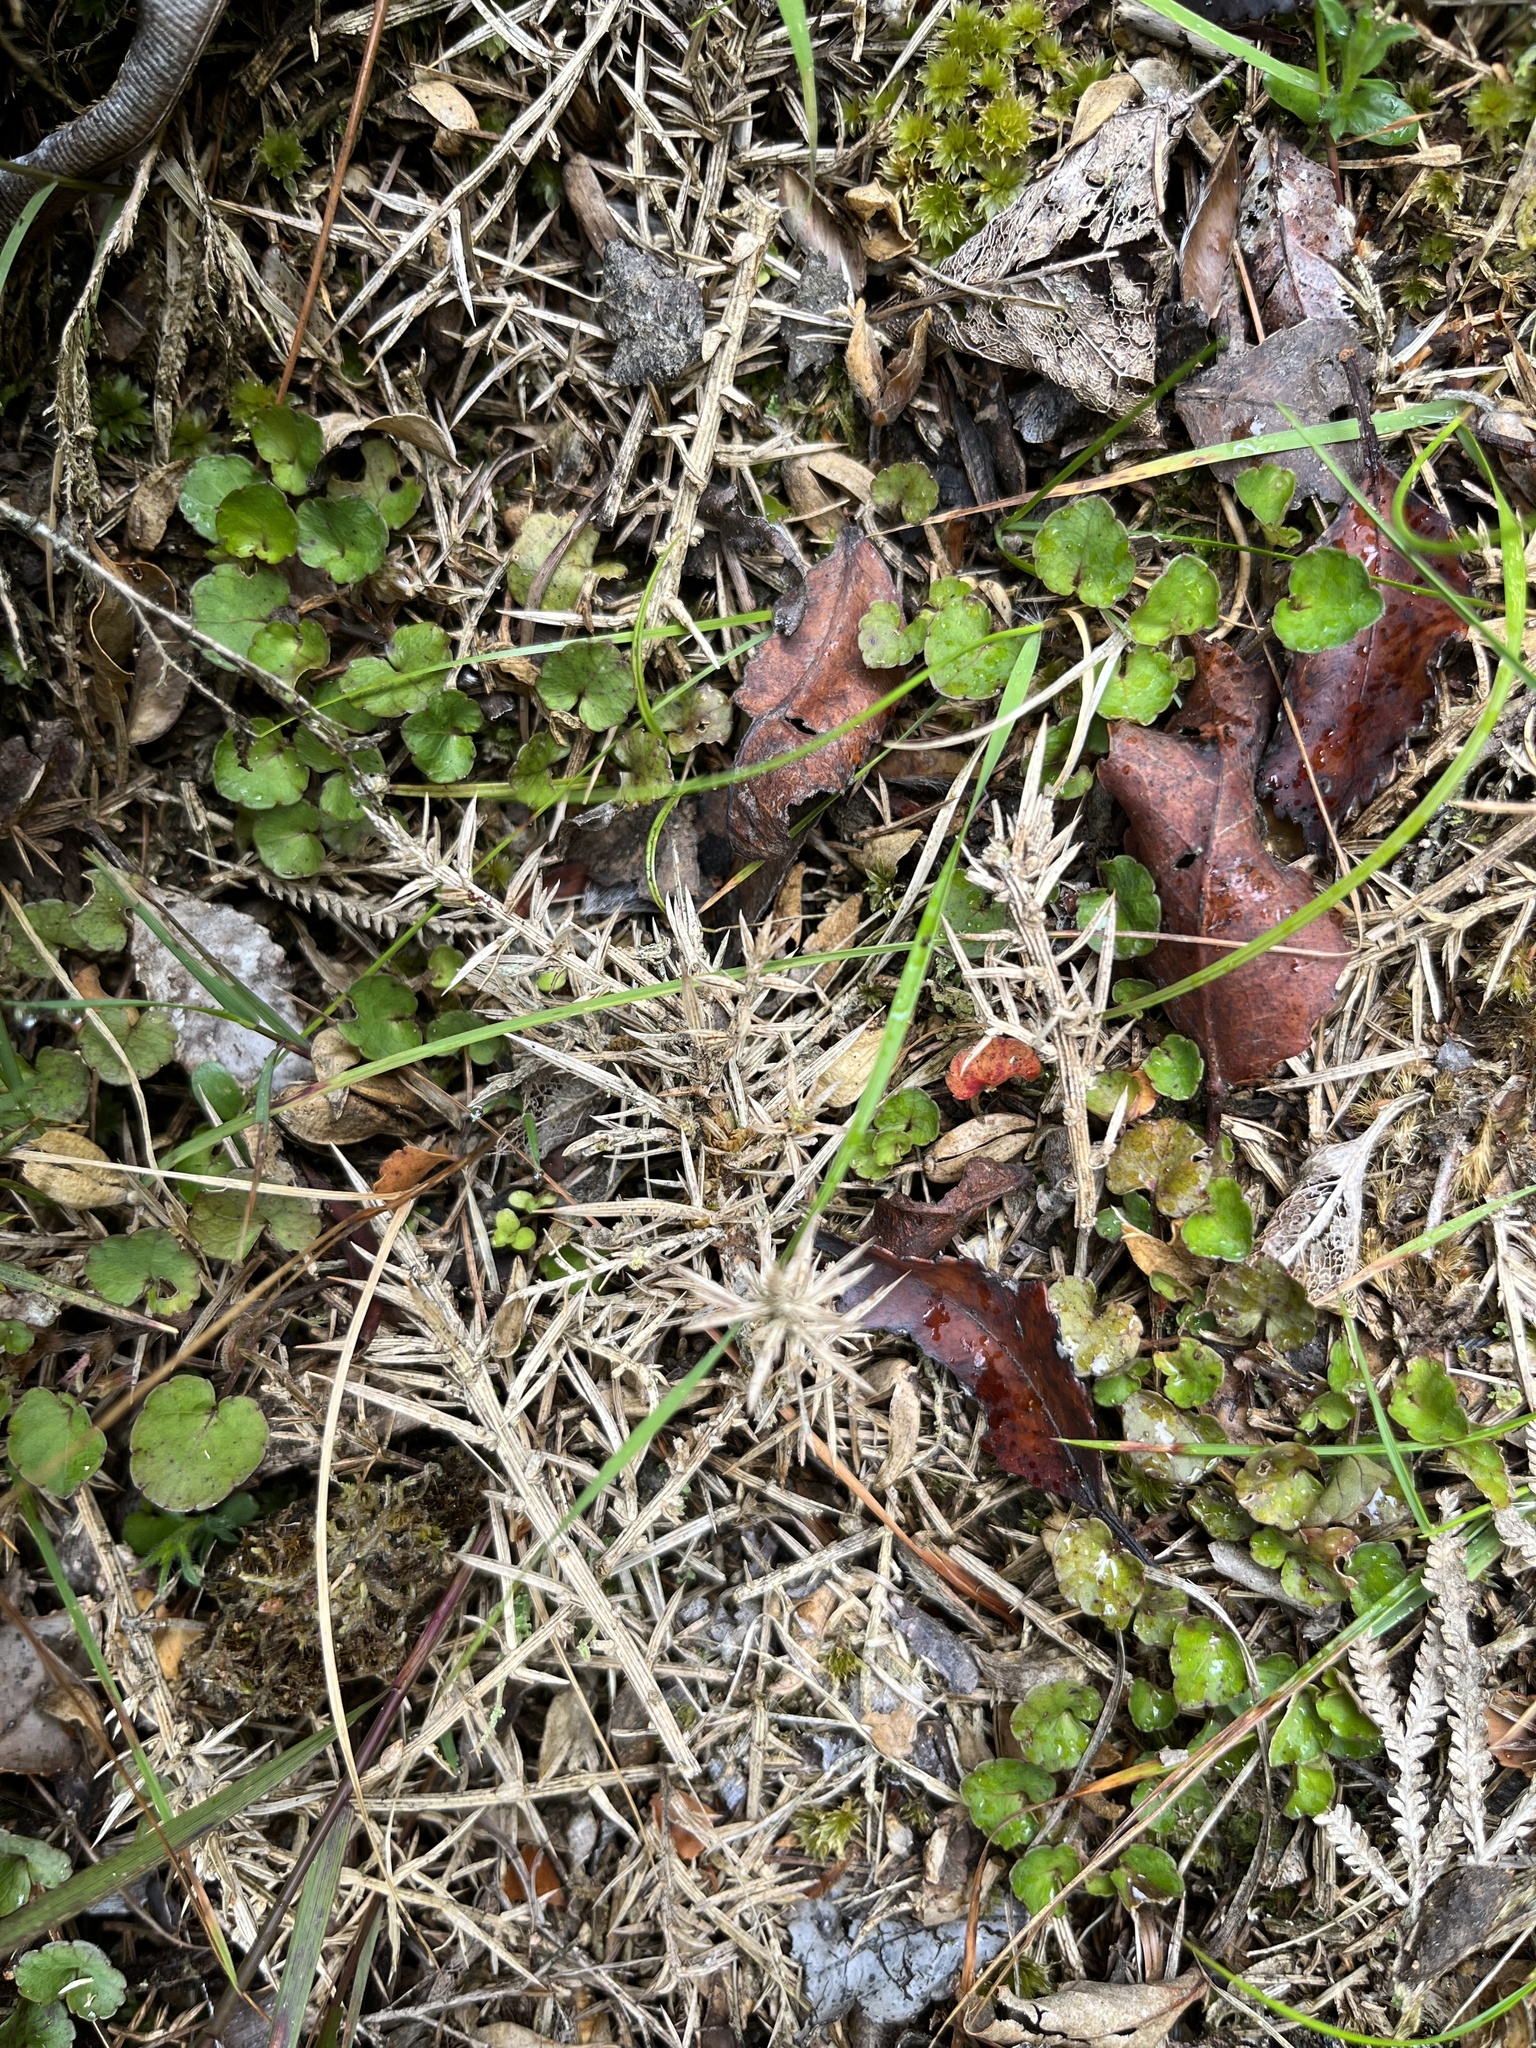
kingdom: Plantae
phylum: Tracheophyta
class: Magnoliopsida
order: Malpighiales
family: Violaceae
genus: Viola
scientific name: Viola filicaulis
